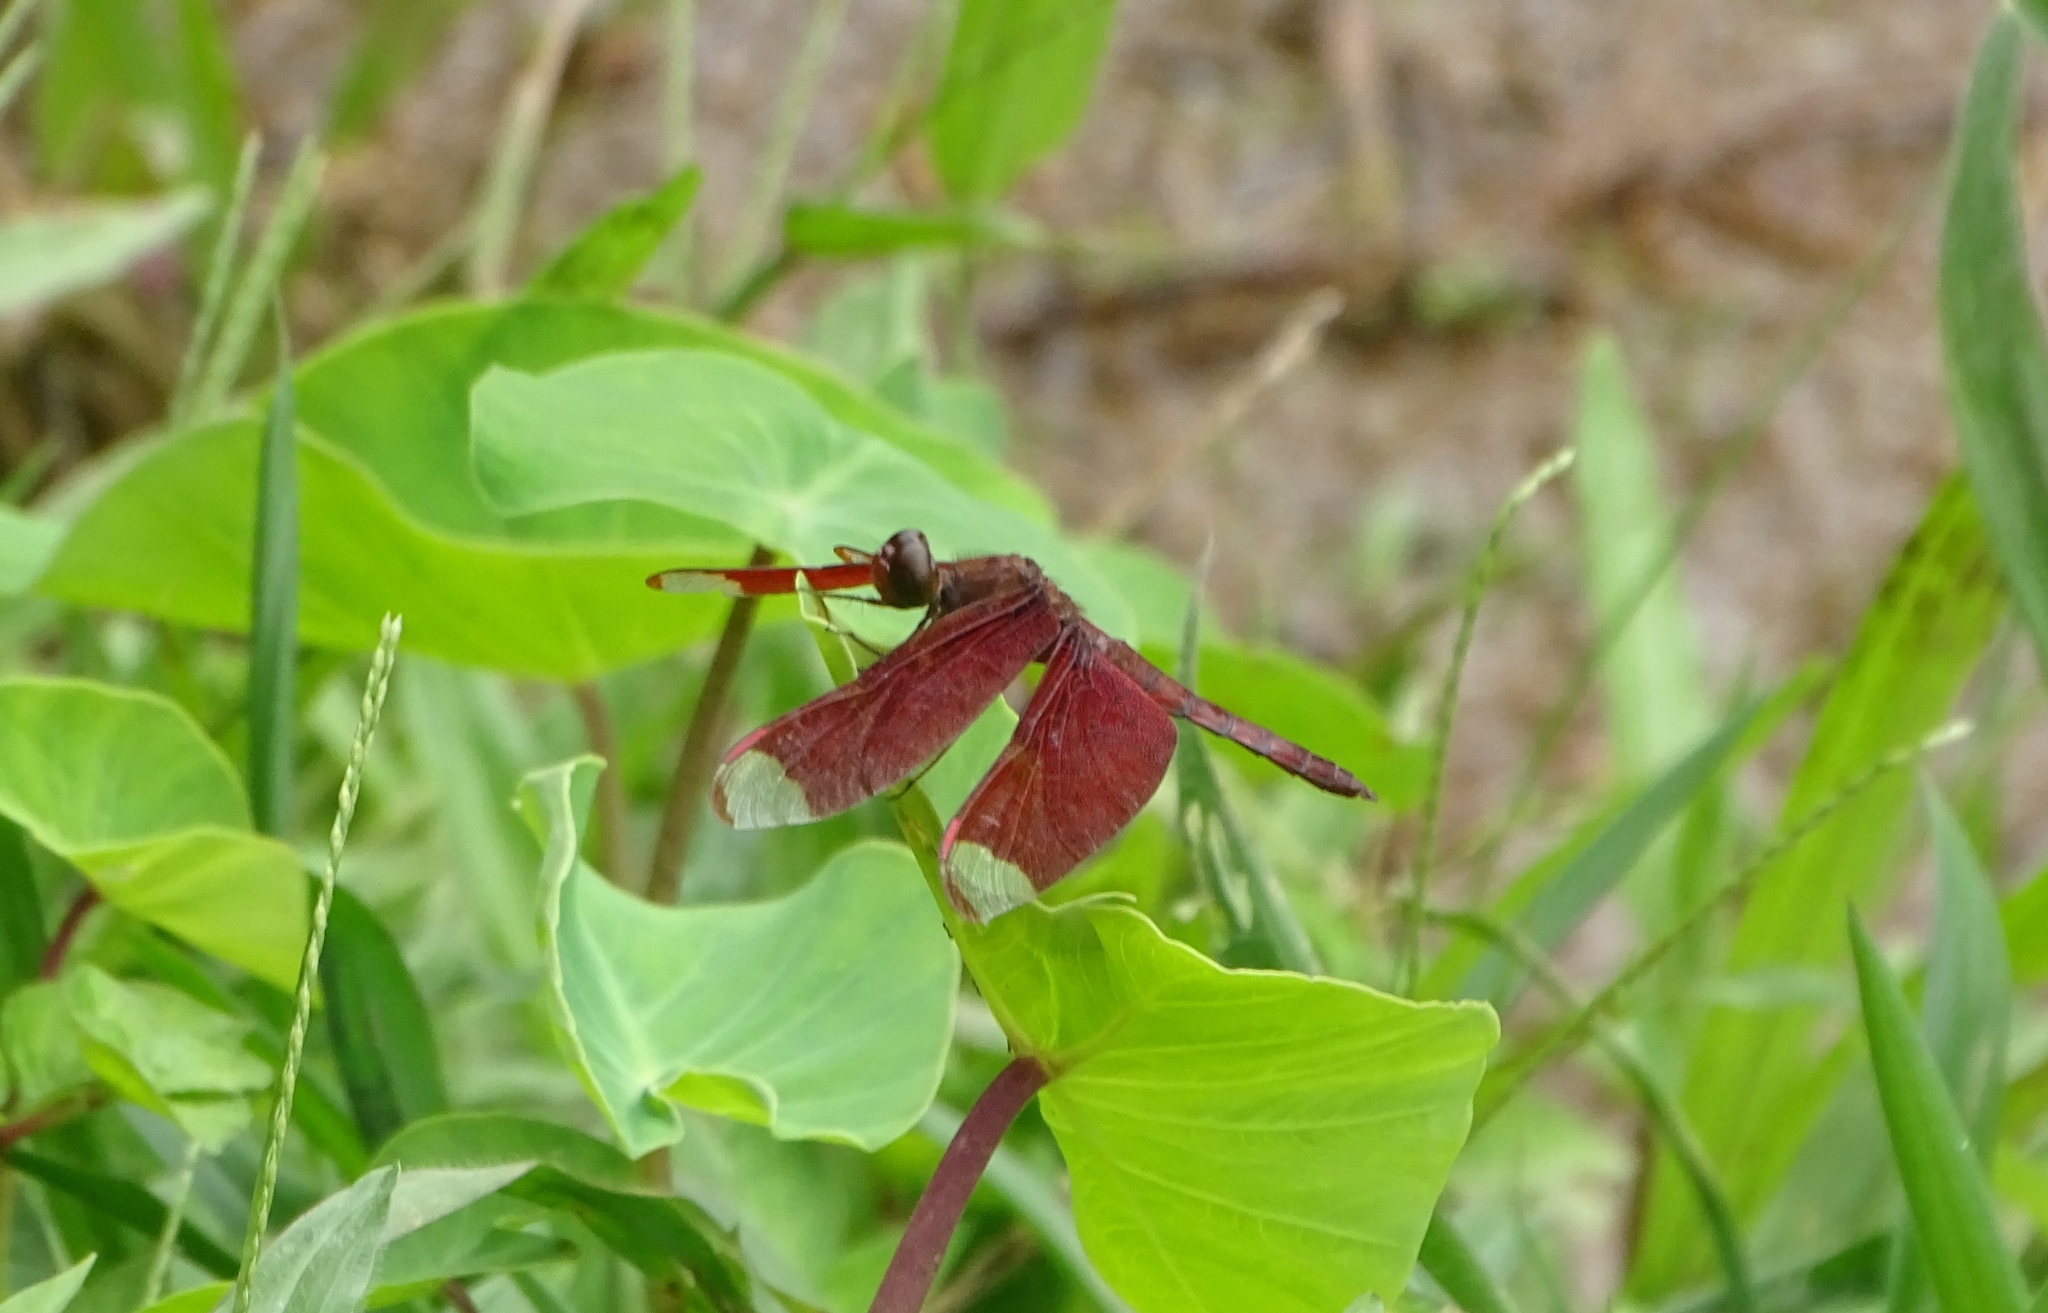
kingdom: Animalia
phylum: Arthropoda
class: Insecta
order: Odonata
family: Libellulidae
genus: Neurothemis
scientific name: Neurothemis fulvia
